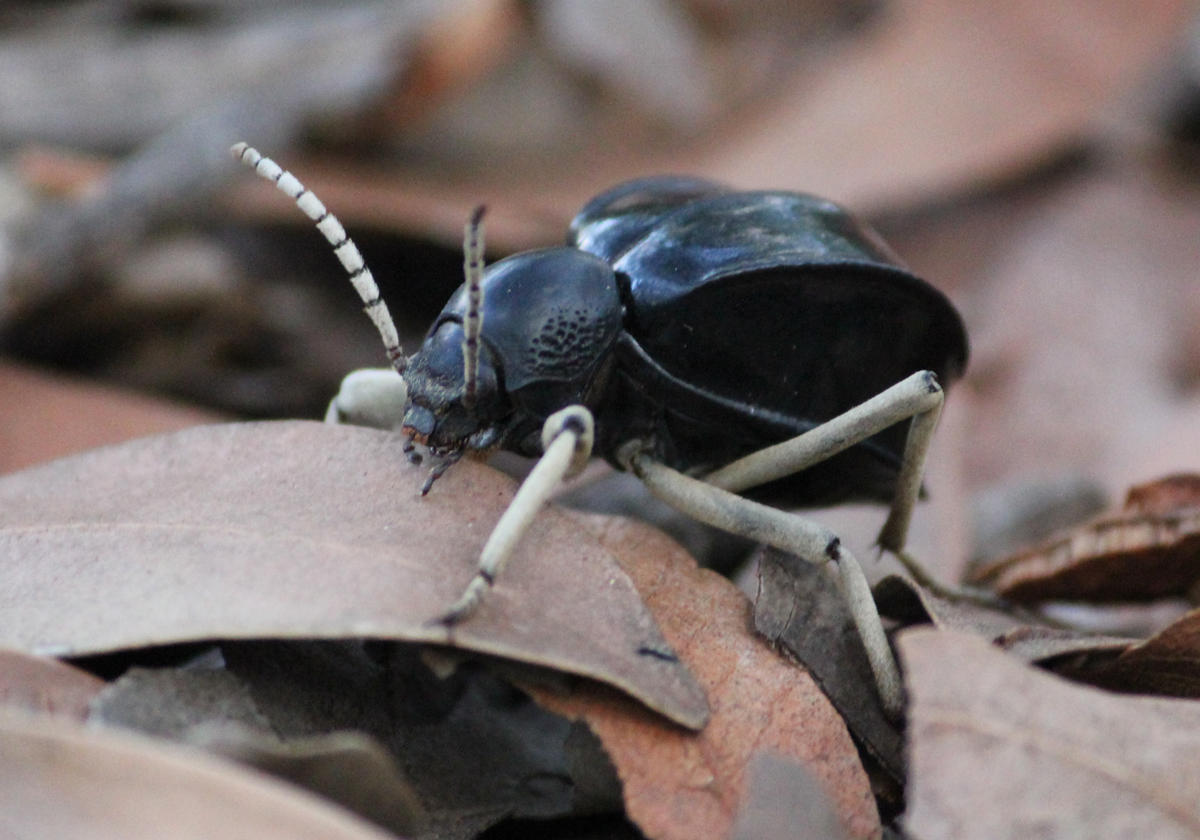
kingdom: Animalia
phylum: Arthropoda
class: Insecta
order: Coleoptera
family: Tenebrionidae
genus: Dichtha
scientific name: Dichtha cubica
